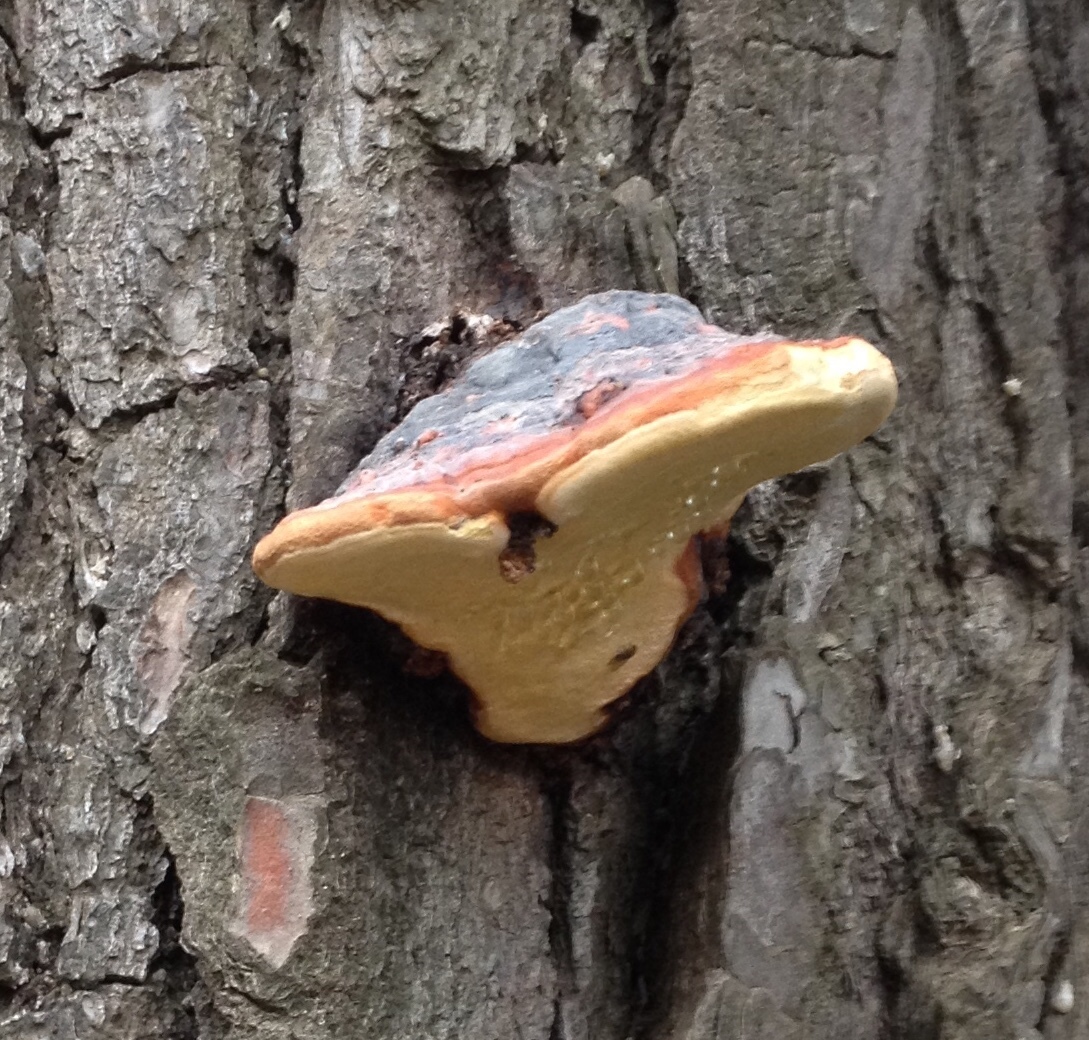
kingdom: Fungi
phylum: Basidiomycota
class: Agaricomycetes
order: Polyporales
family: Fomitopsidaceae
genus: Fomitopsis
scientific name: Fomitopsis pinicola
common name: Red-belted bracket
